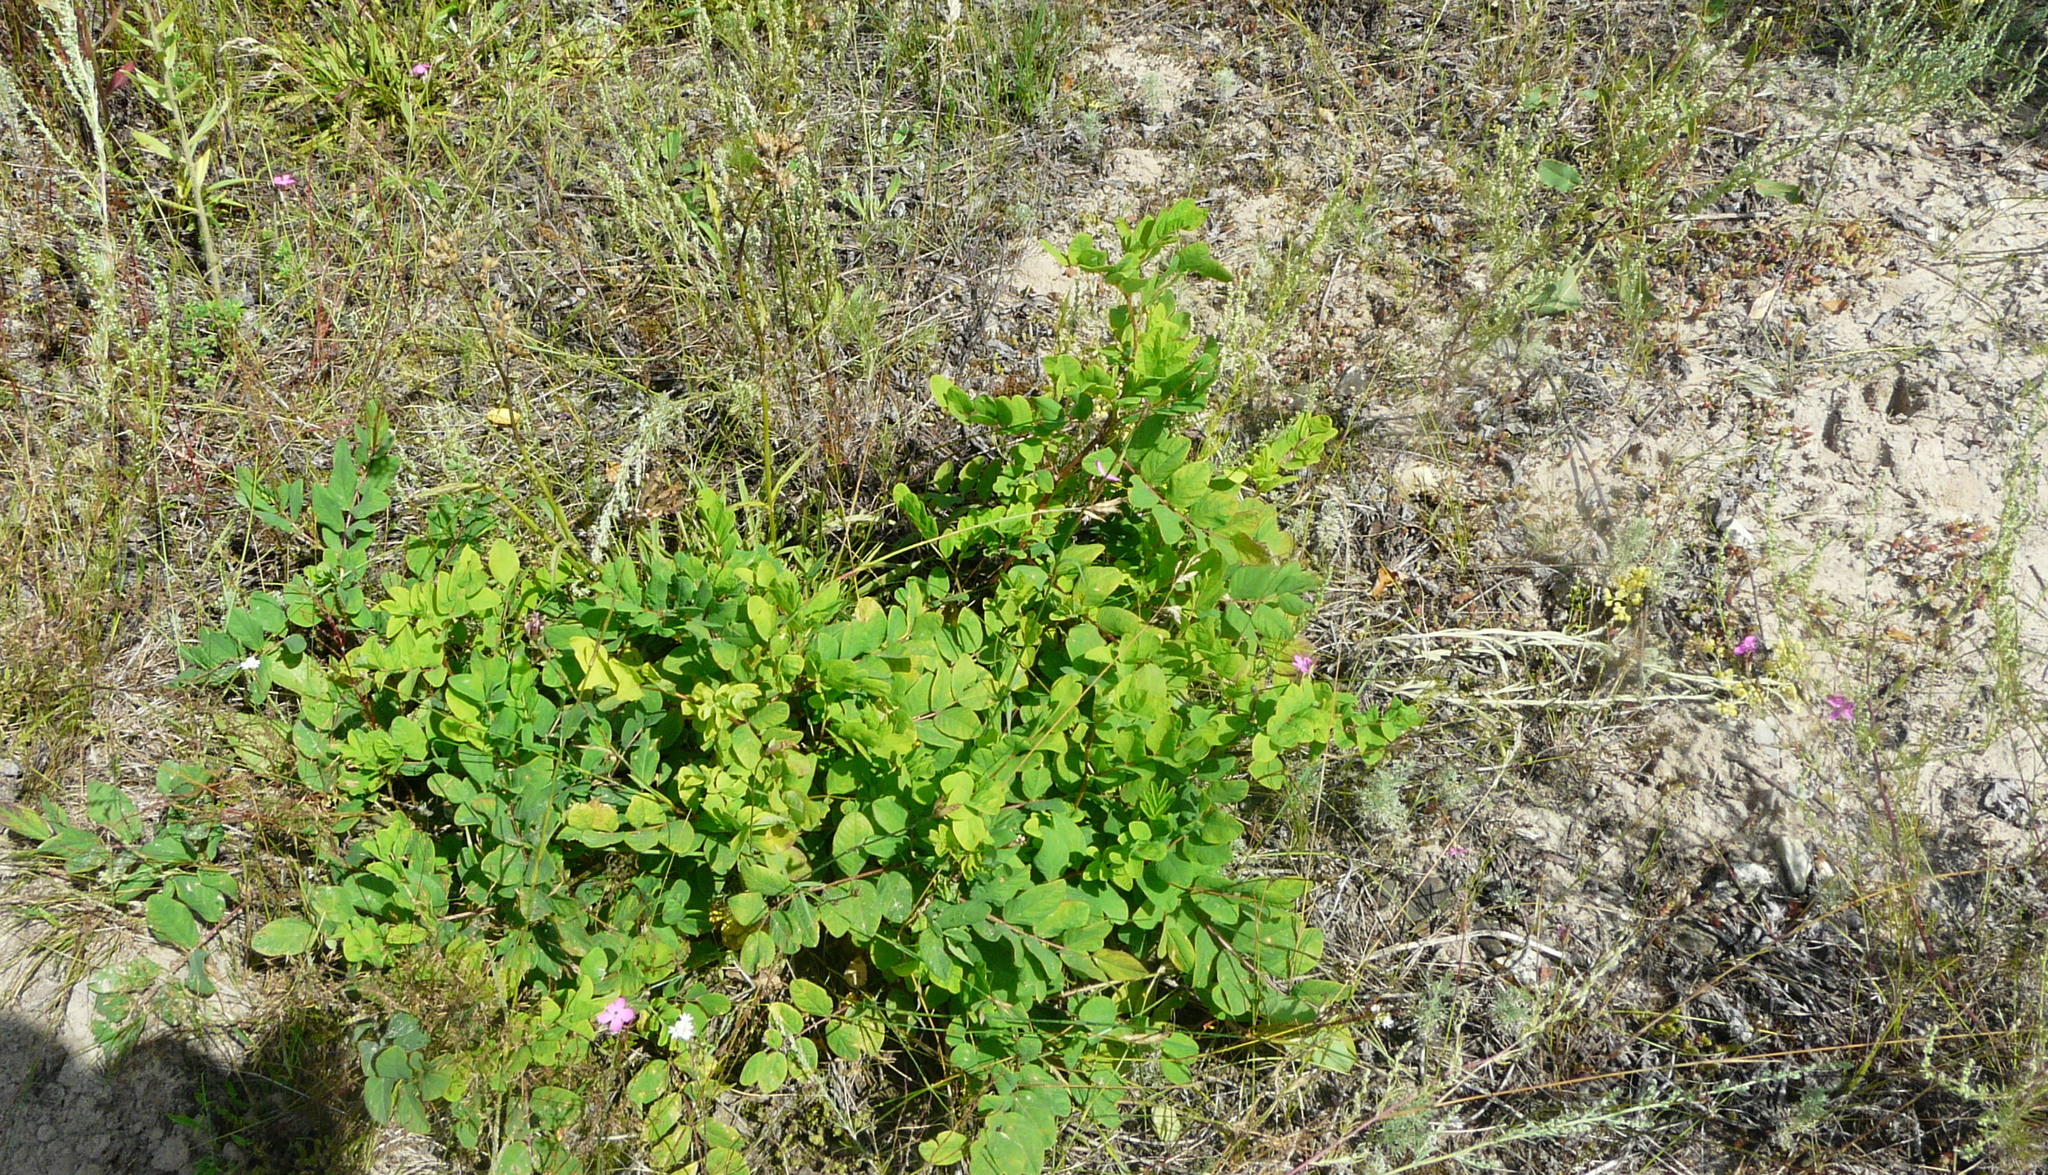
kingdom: Plantae
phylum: Tracheophyta
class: Magnoliopsida
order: Fabales
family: Fabaceae
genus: Astragalus
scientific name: Astragalus glycyphyllos
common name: Wild liquorice
